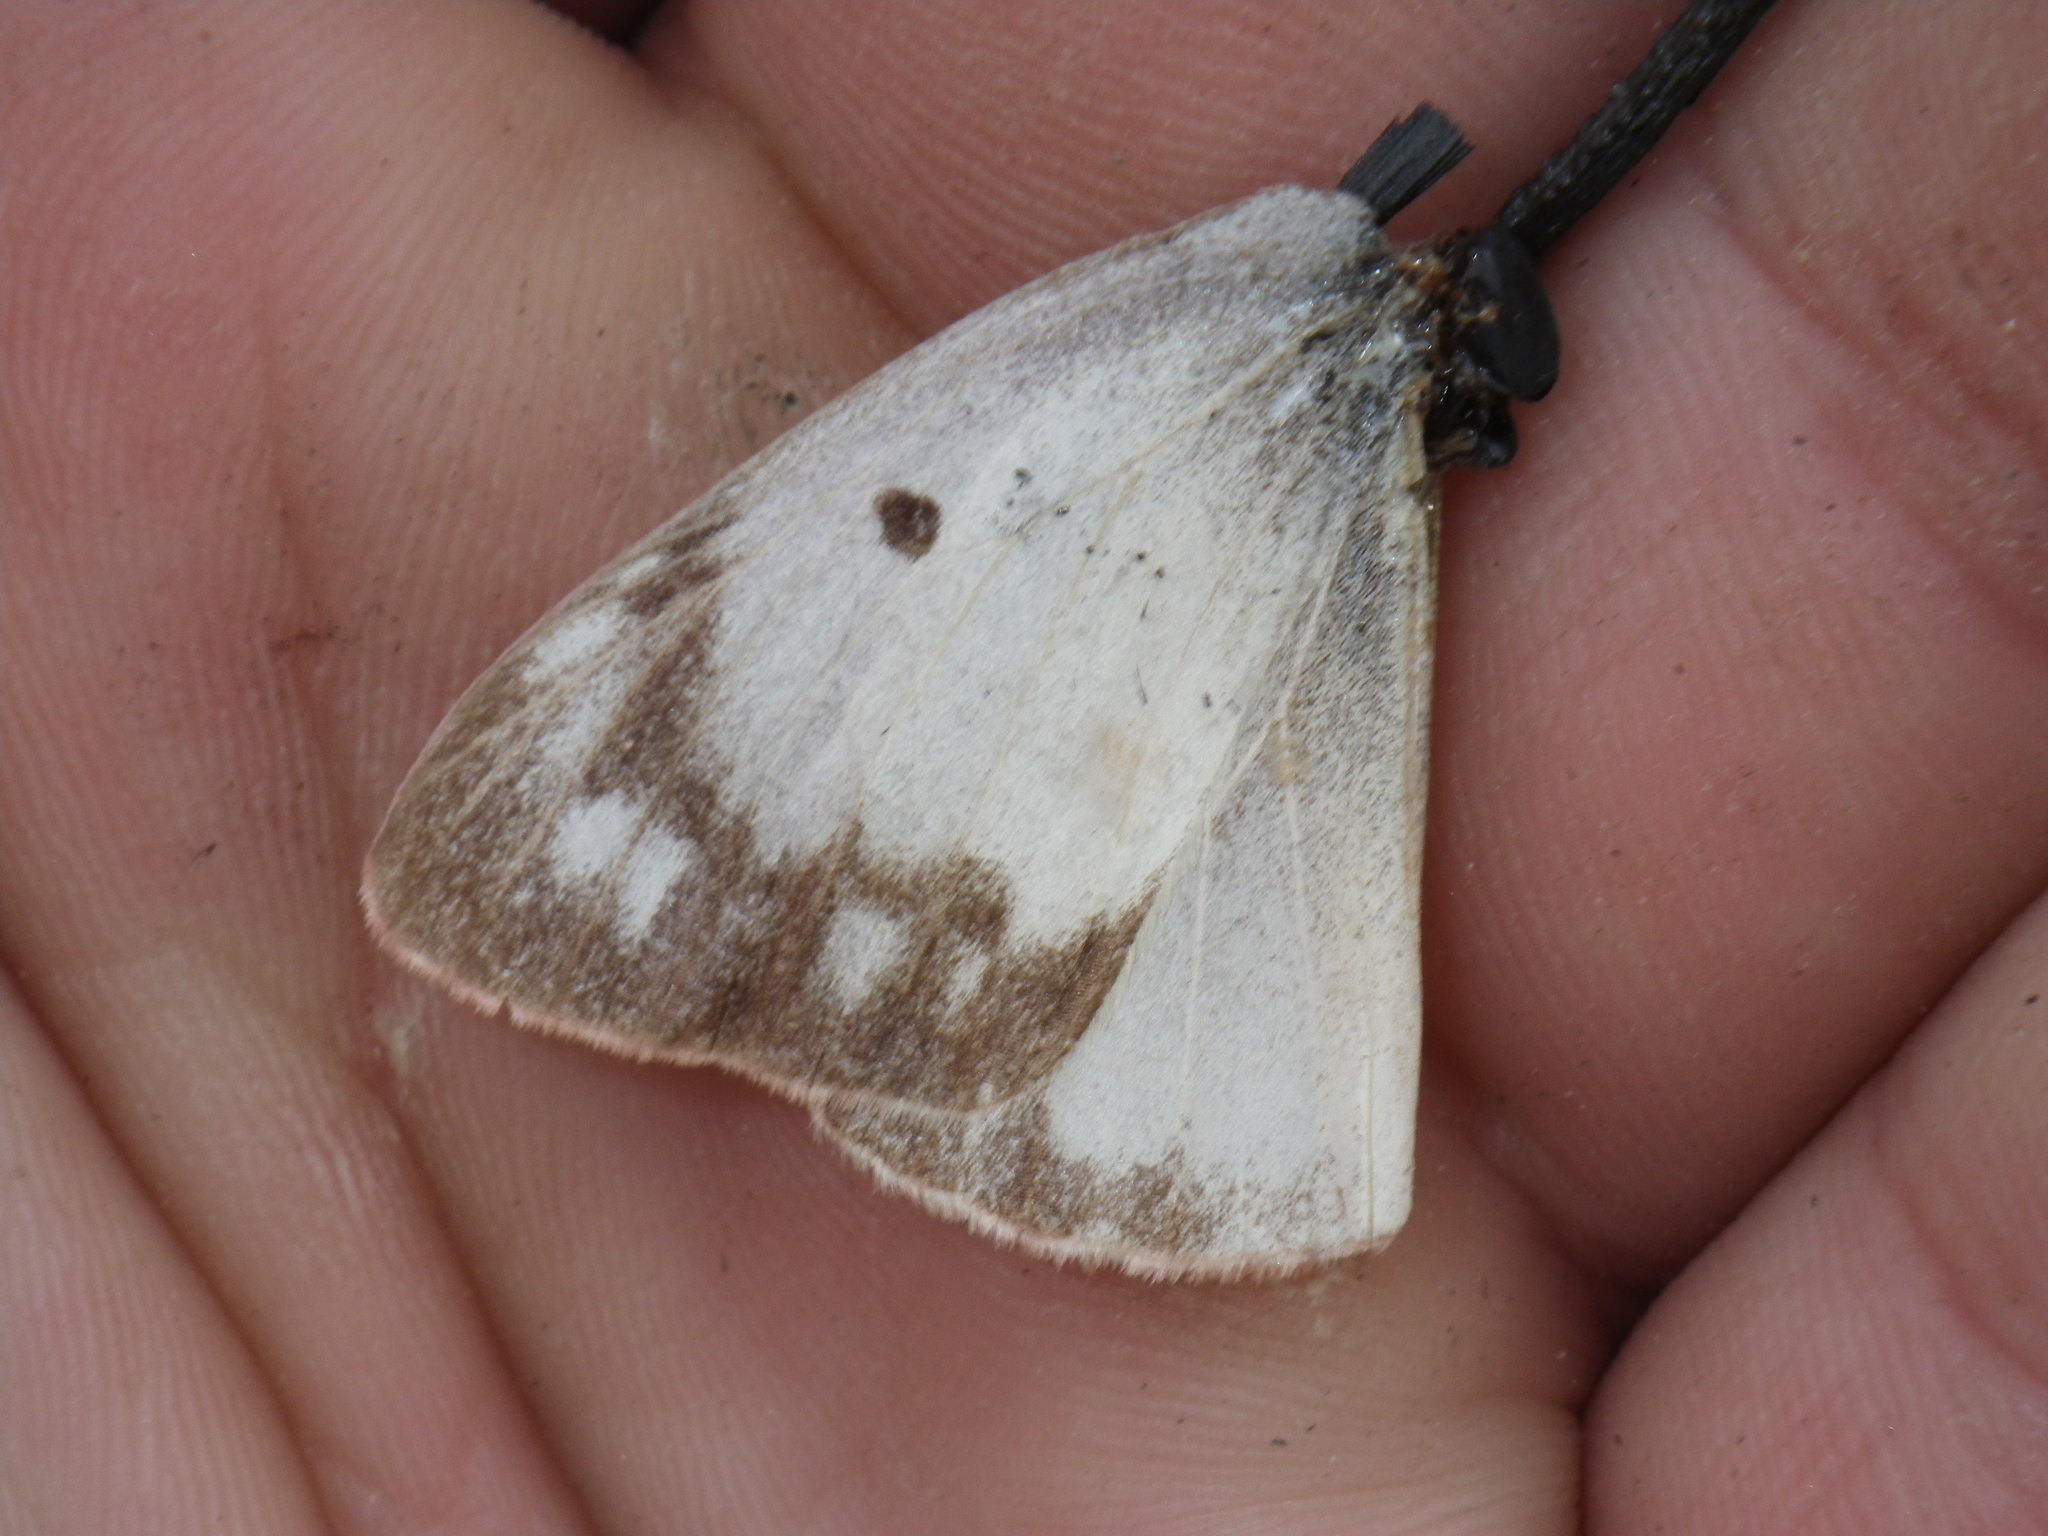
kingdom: Animalia
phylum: Arthropoda
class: Insecta
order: Lepidoptera
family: Pieridae
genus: Colias
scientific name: Colias eurytheme
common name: Alfalfa butterfly
